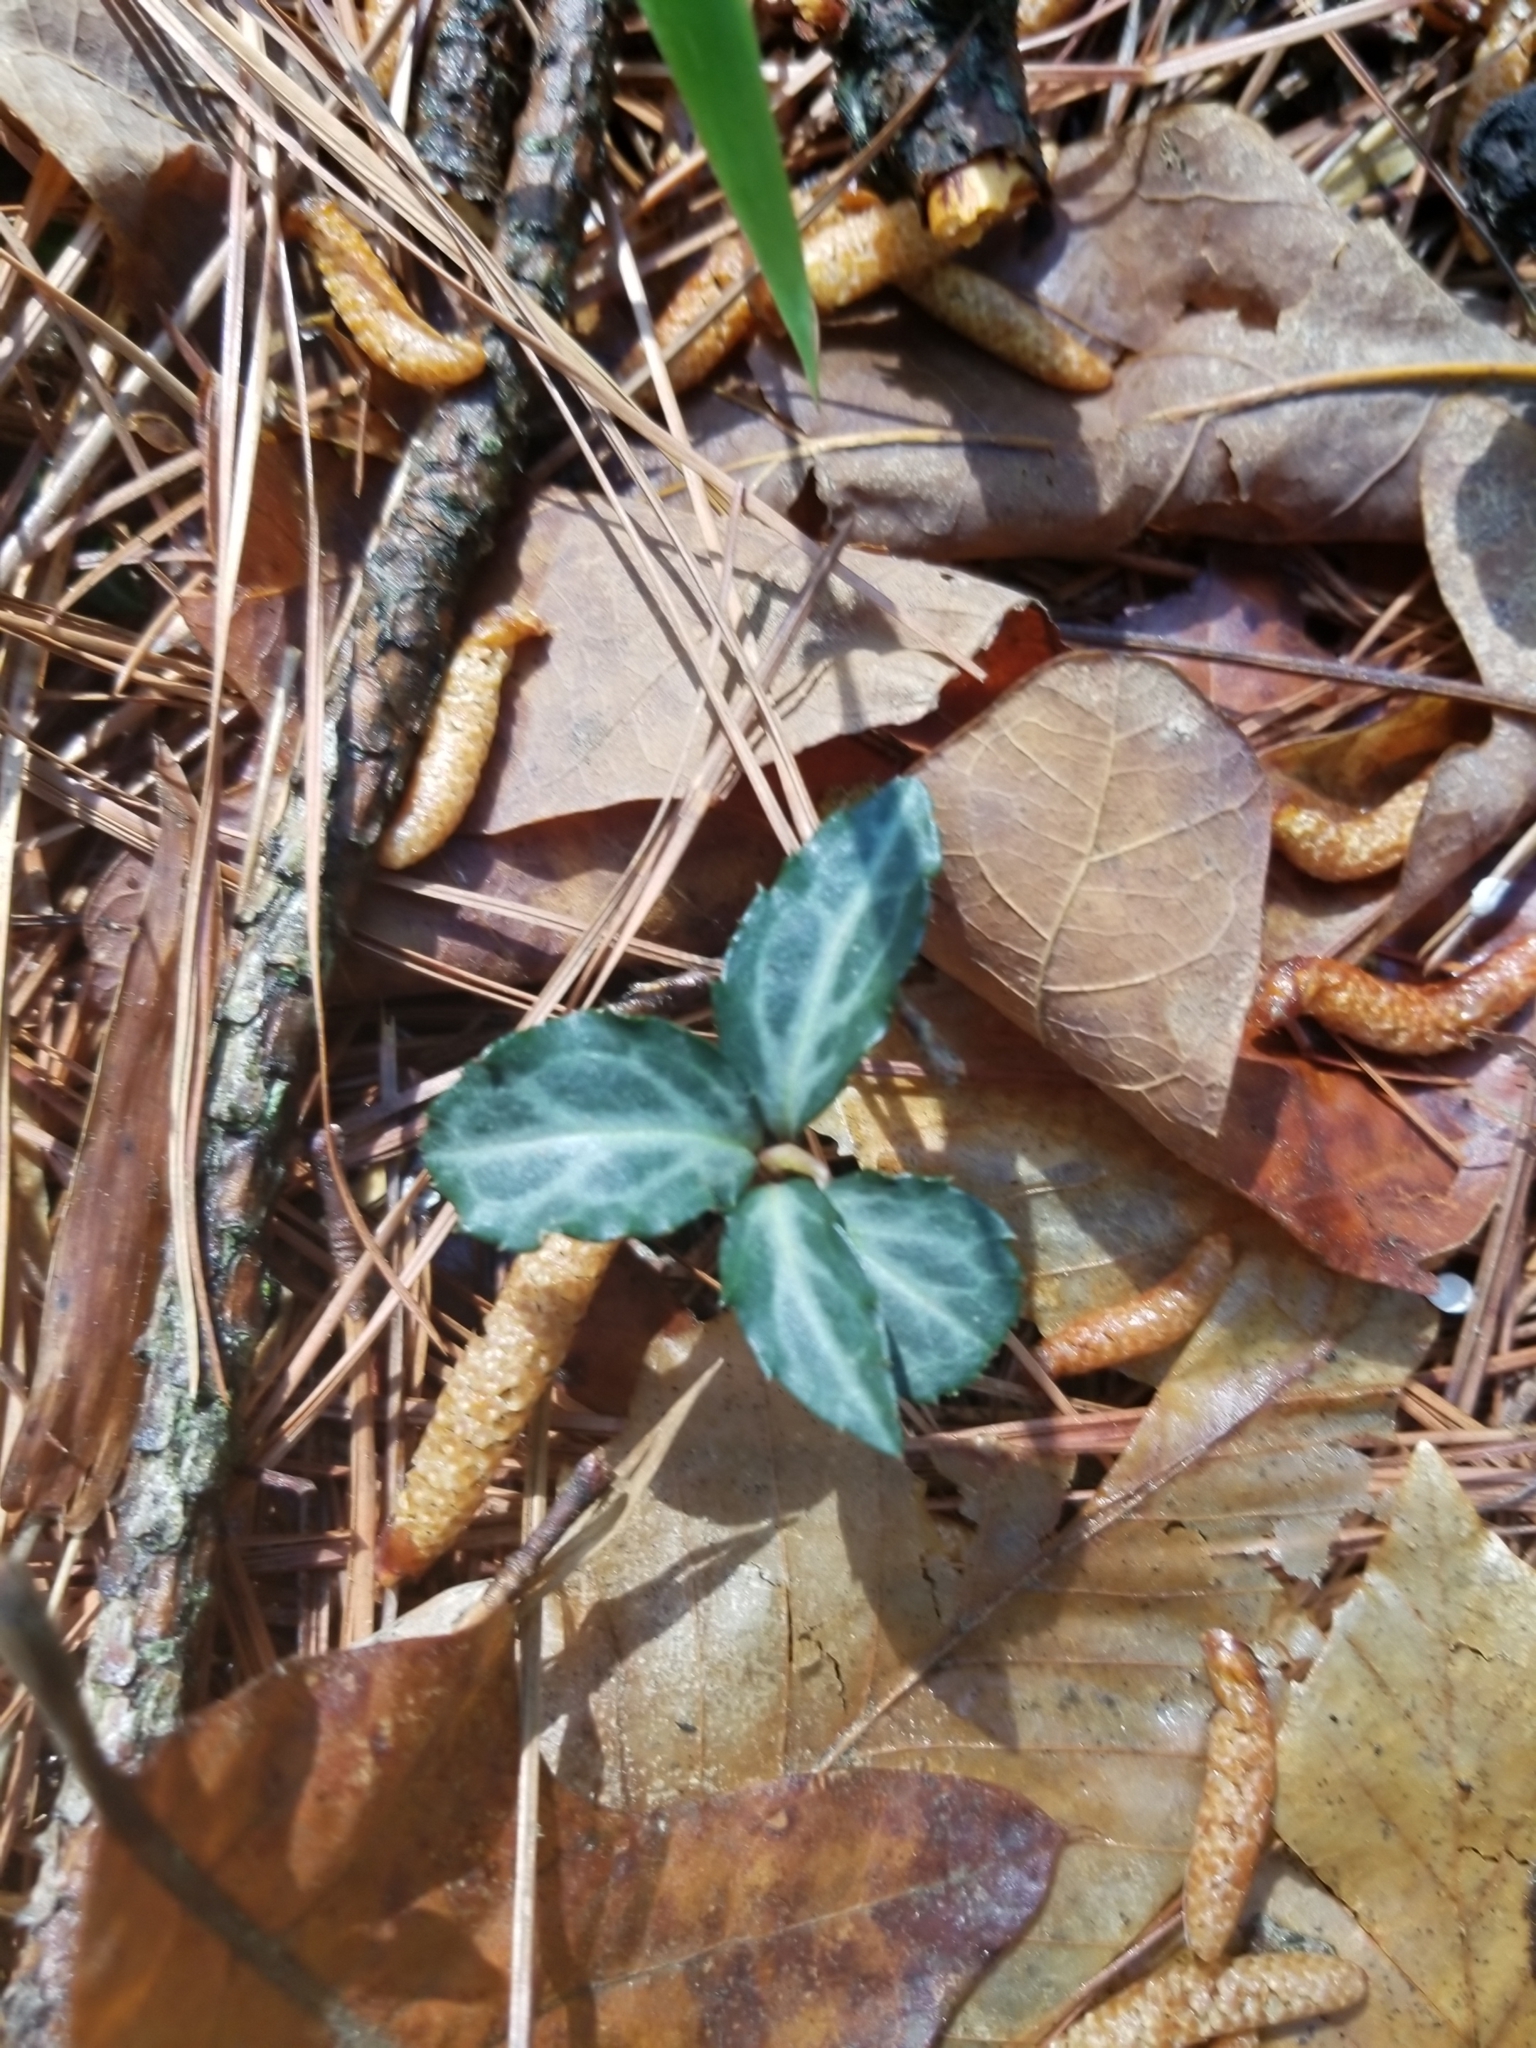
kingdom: Plantae
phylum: Tracheophyta
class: Magnoliopsida
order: Ericales
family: Ericaceae
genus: Chimaphila
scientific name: Chimaphila maculata
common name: Spotted pipsissewa
